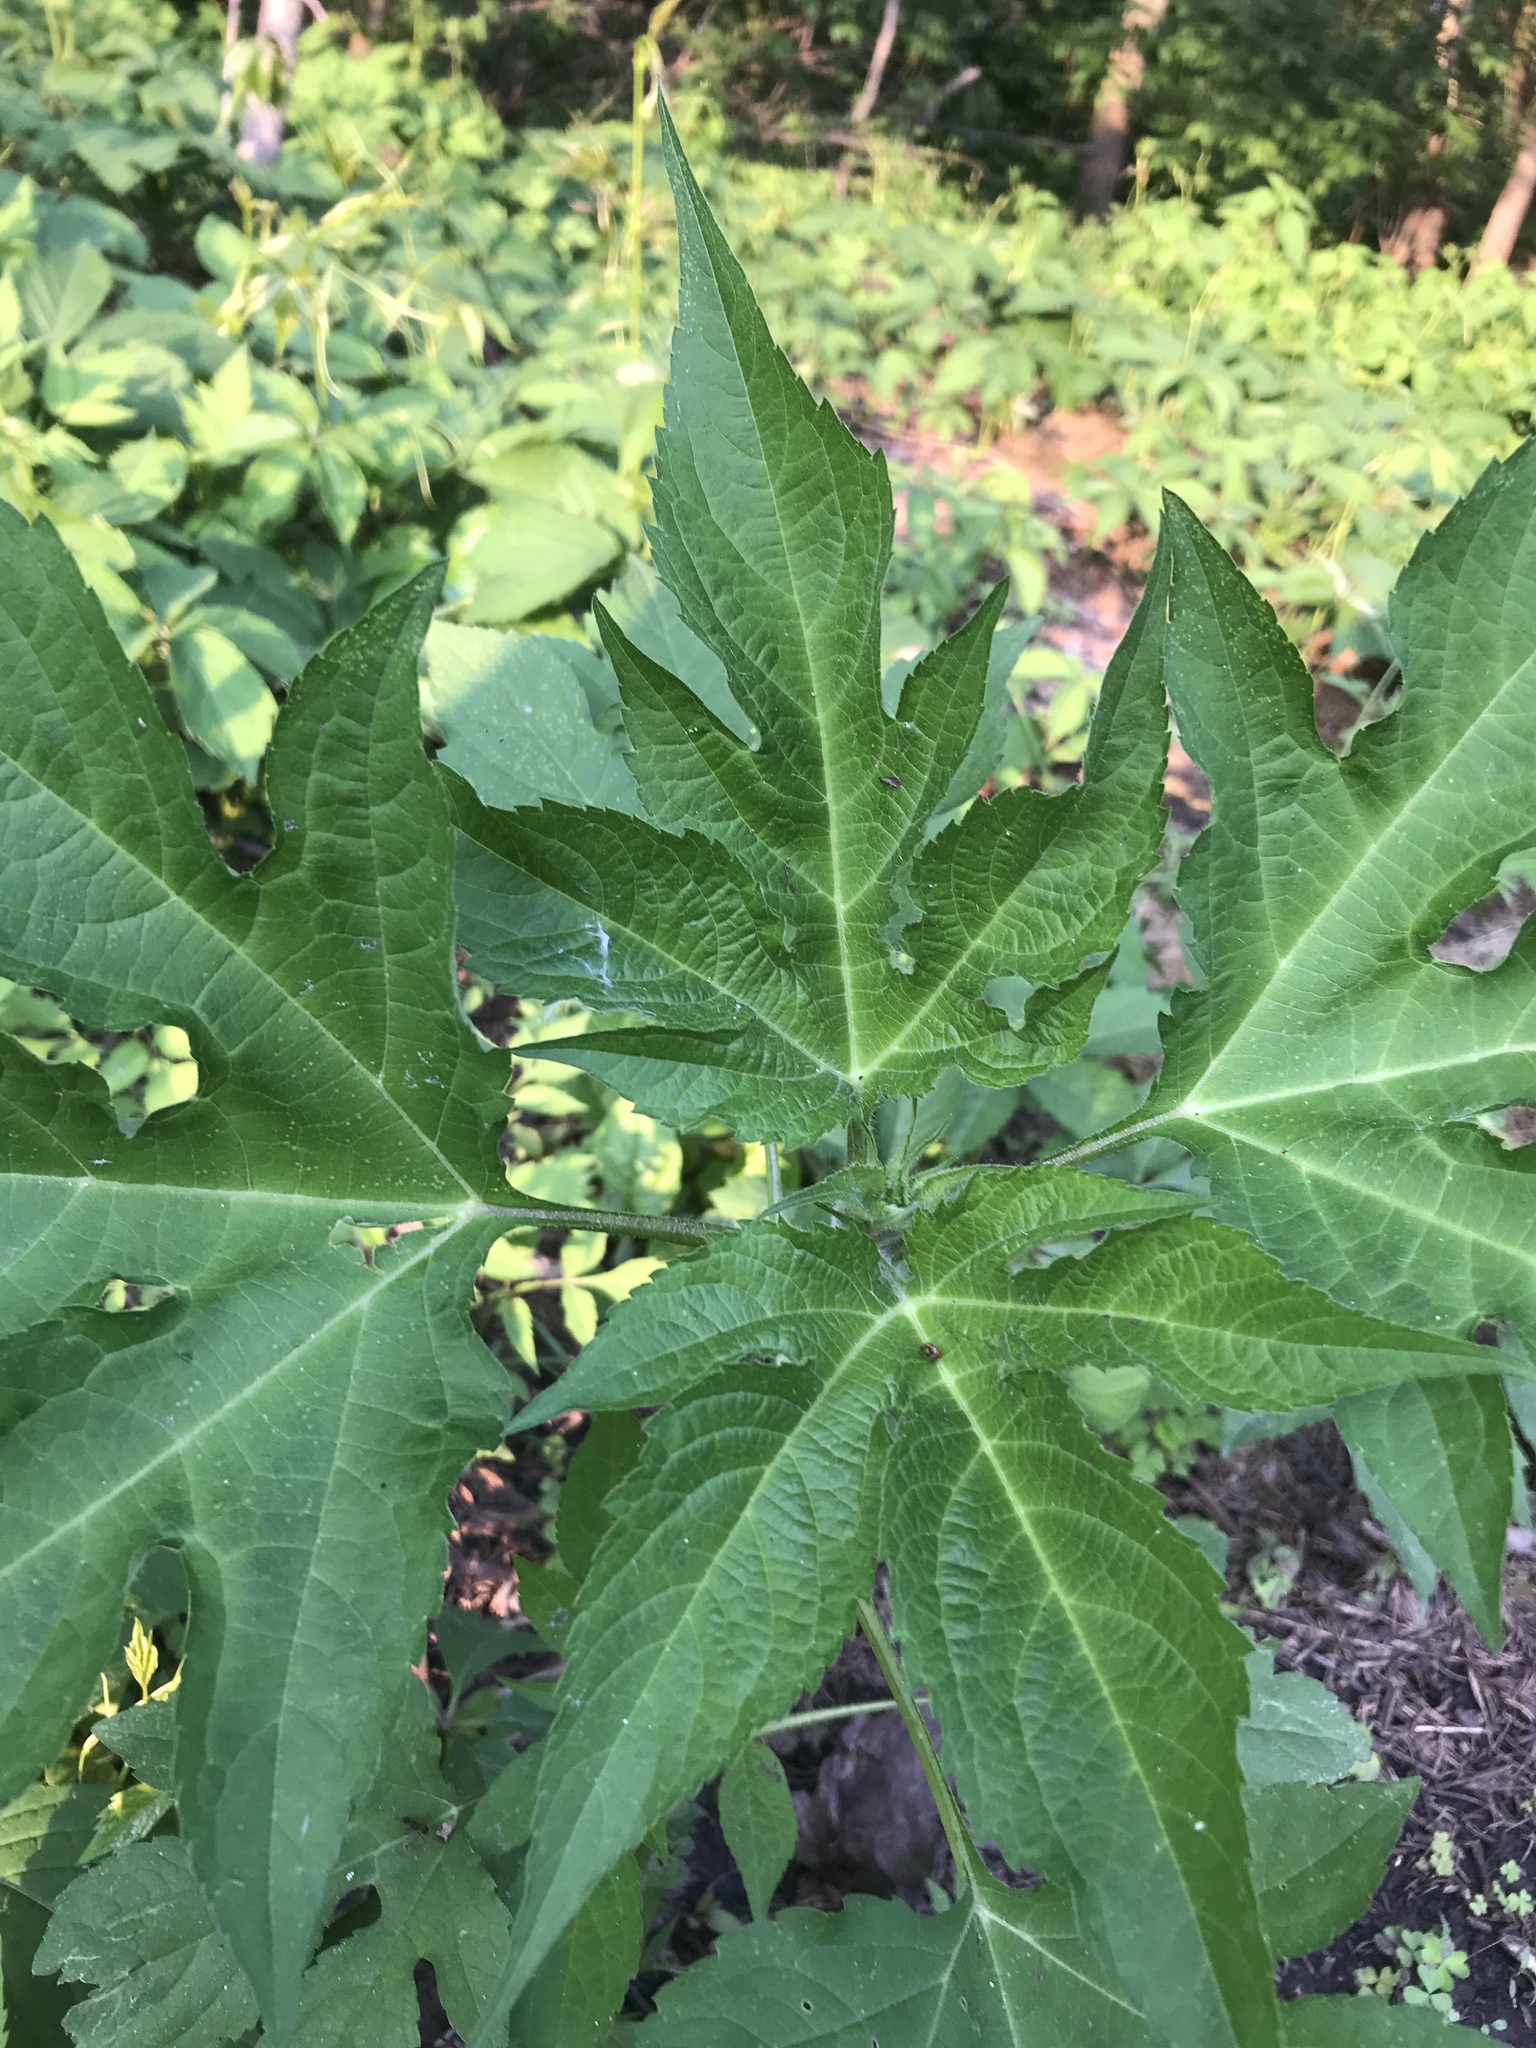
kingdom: Plantae
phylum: Tracheophyta
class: Magnoliopsida
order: Asterales
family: Asteraceae
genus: Ambrosia
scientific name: Ambrosia trifida
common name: Giant ragweed
